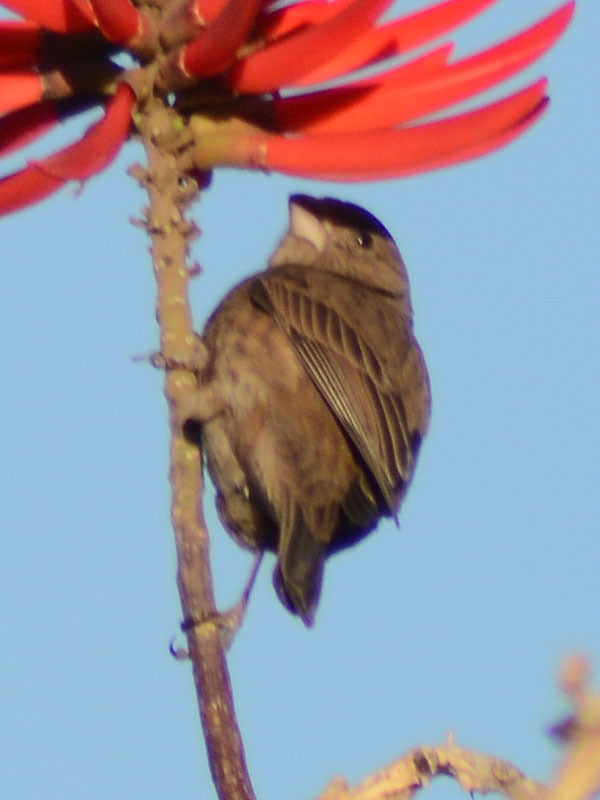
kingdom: Animalia
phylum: Chordata
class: Aves
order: Passeriformes
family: Fringillidae
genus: Haemorhous
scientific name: Haemorhous mexicanus
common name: House finch
